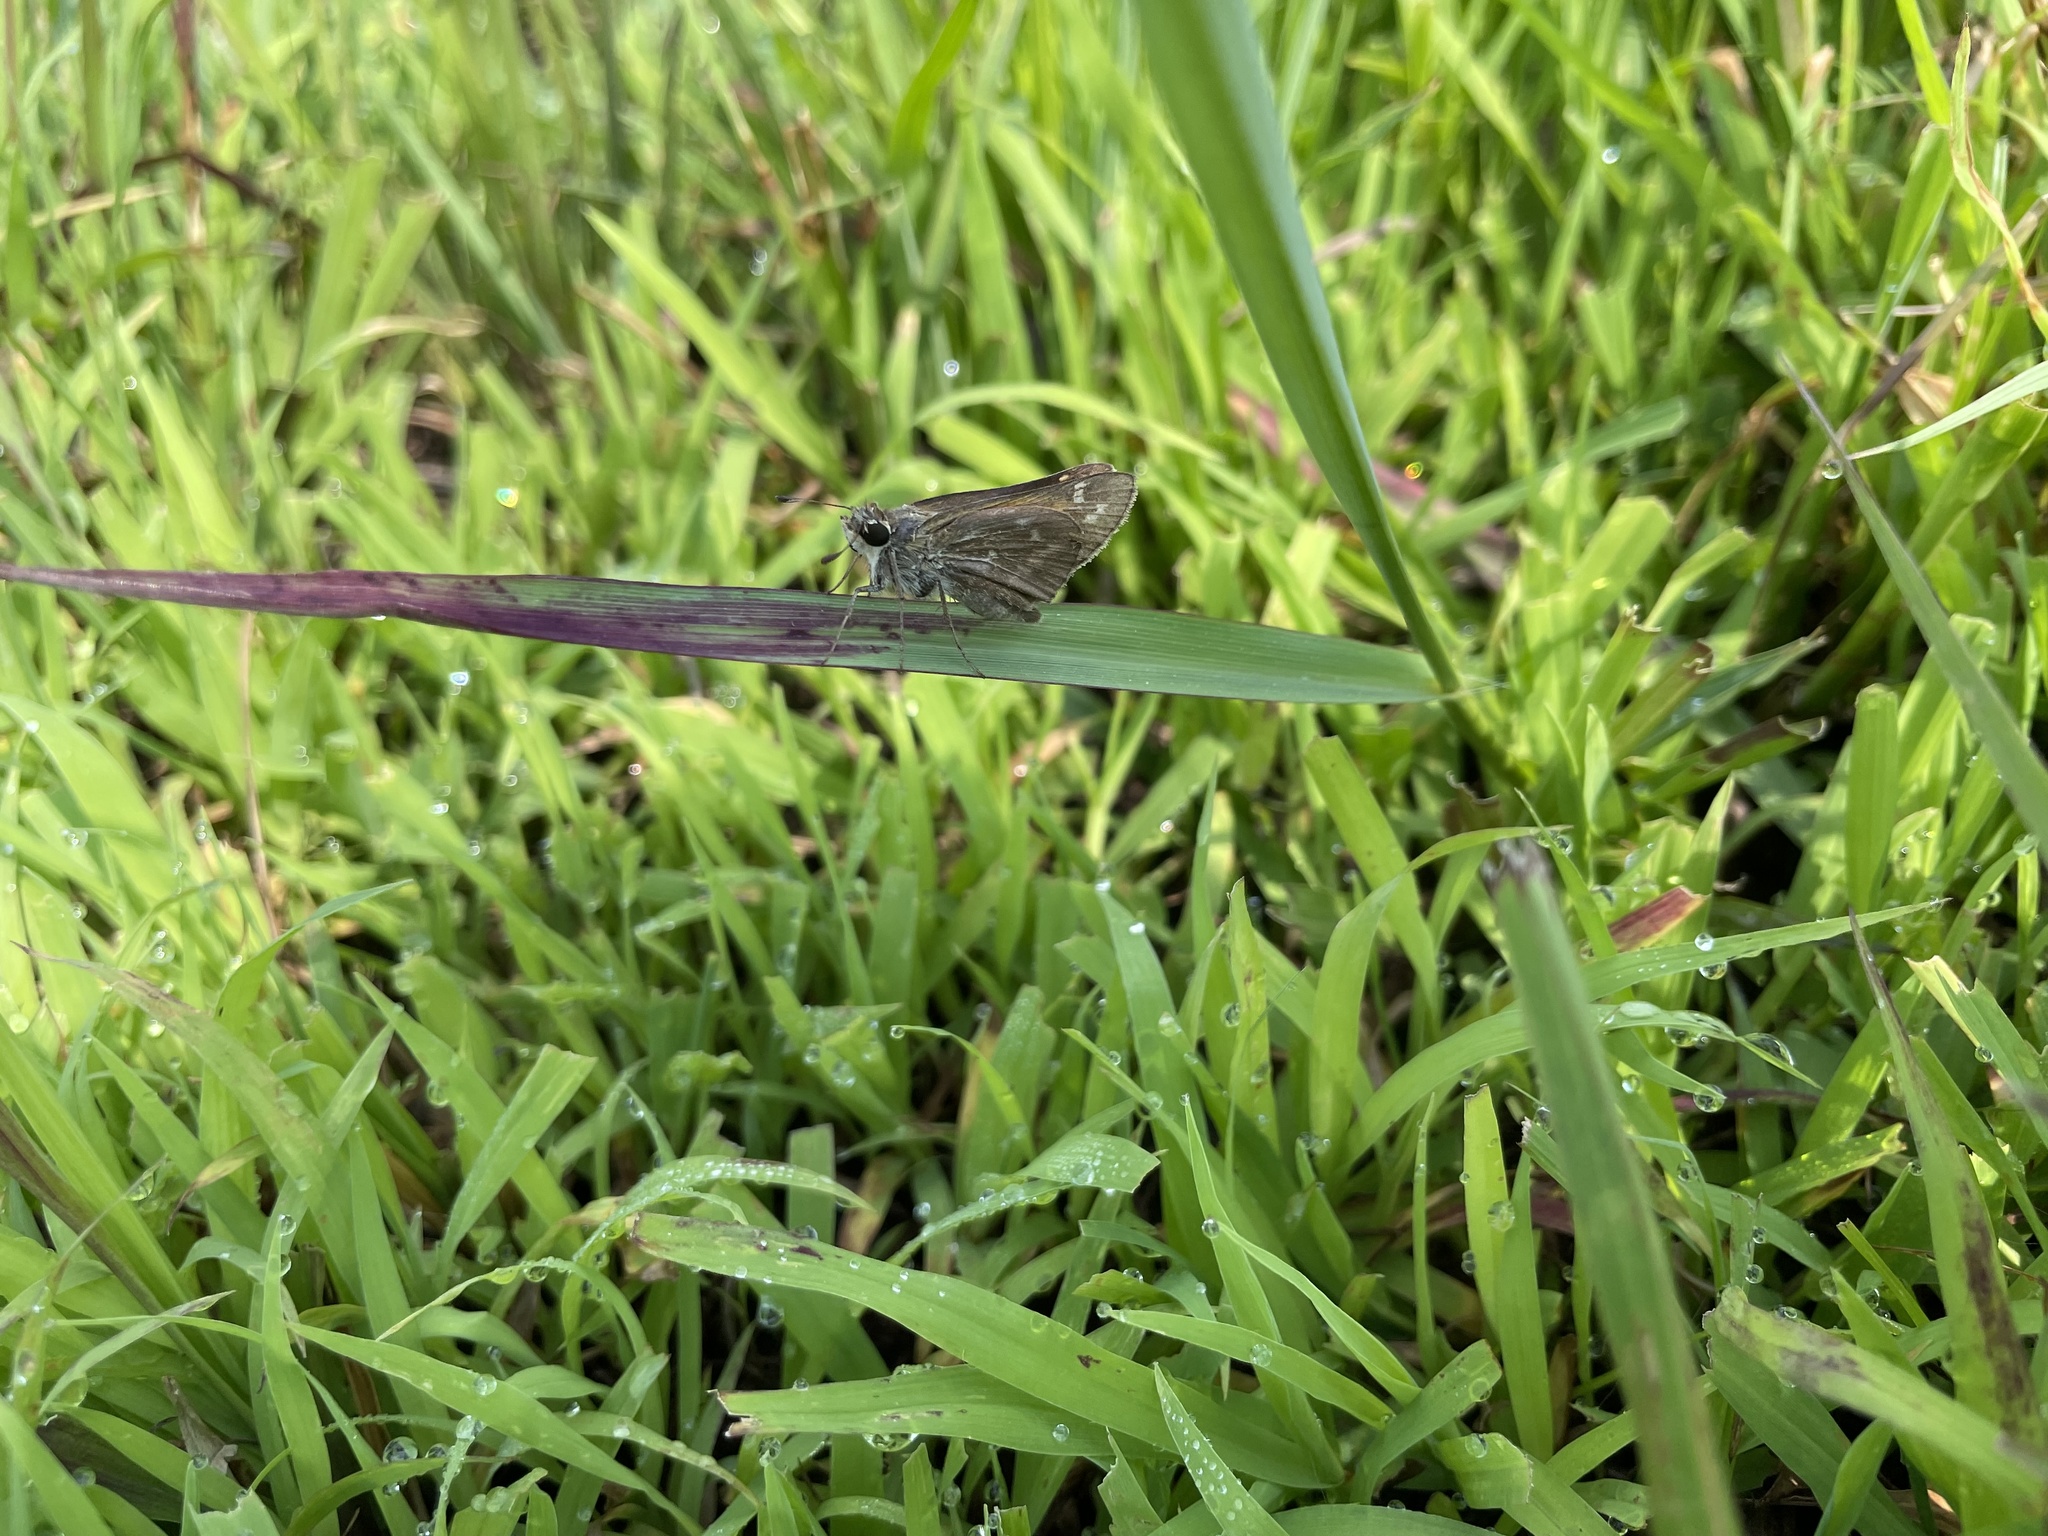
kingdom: Animalia
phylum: Arthropoda
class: Insecta
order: Lepidoptera
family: Hesperiidae
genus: Atalopedes
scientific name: Atalopedes
